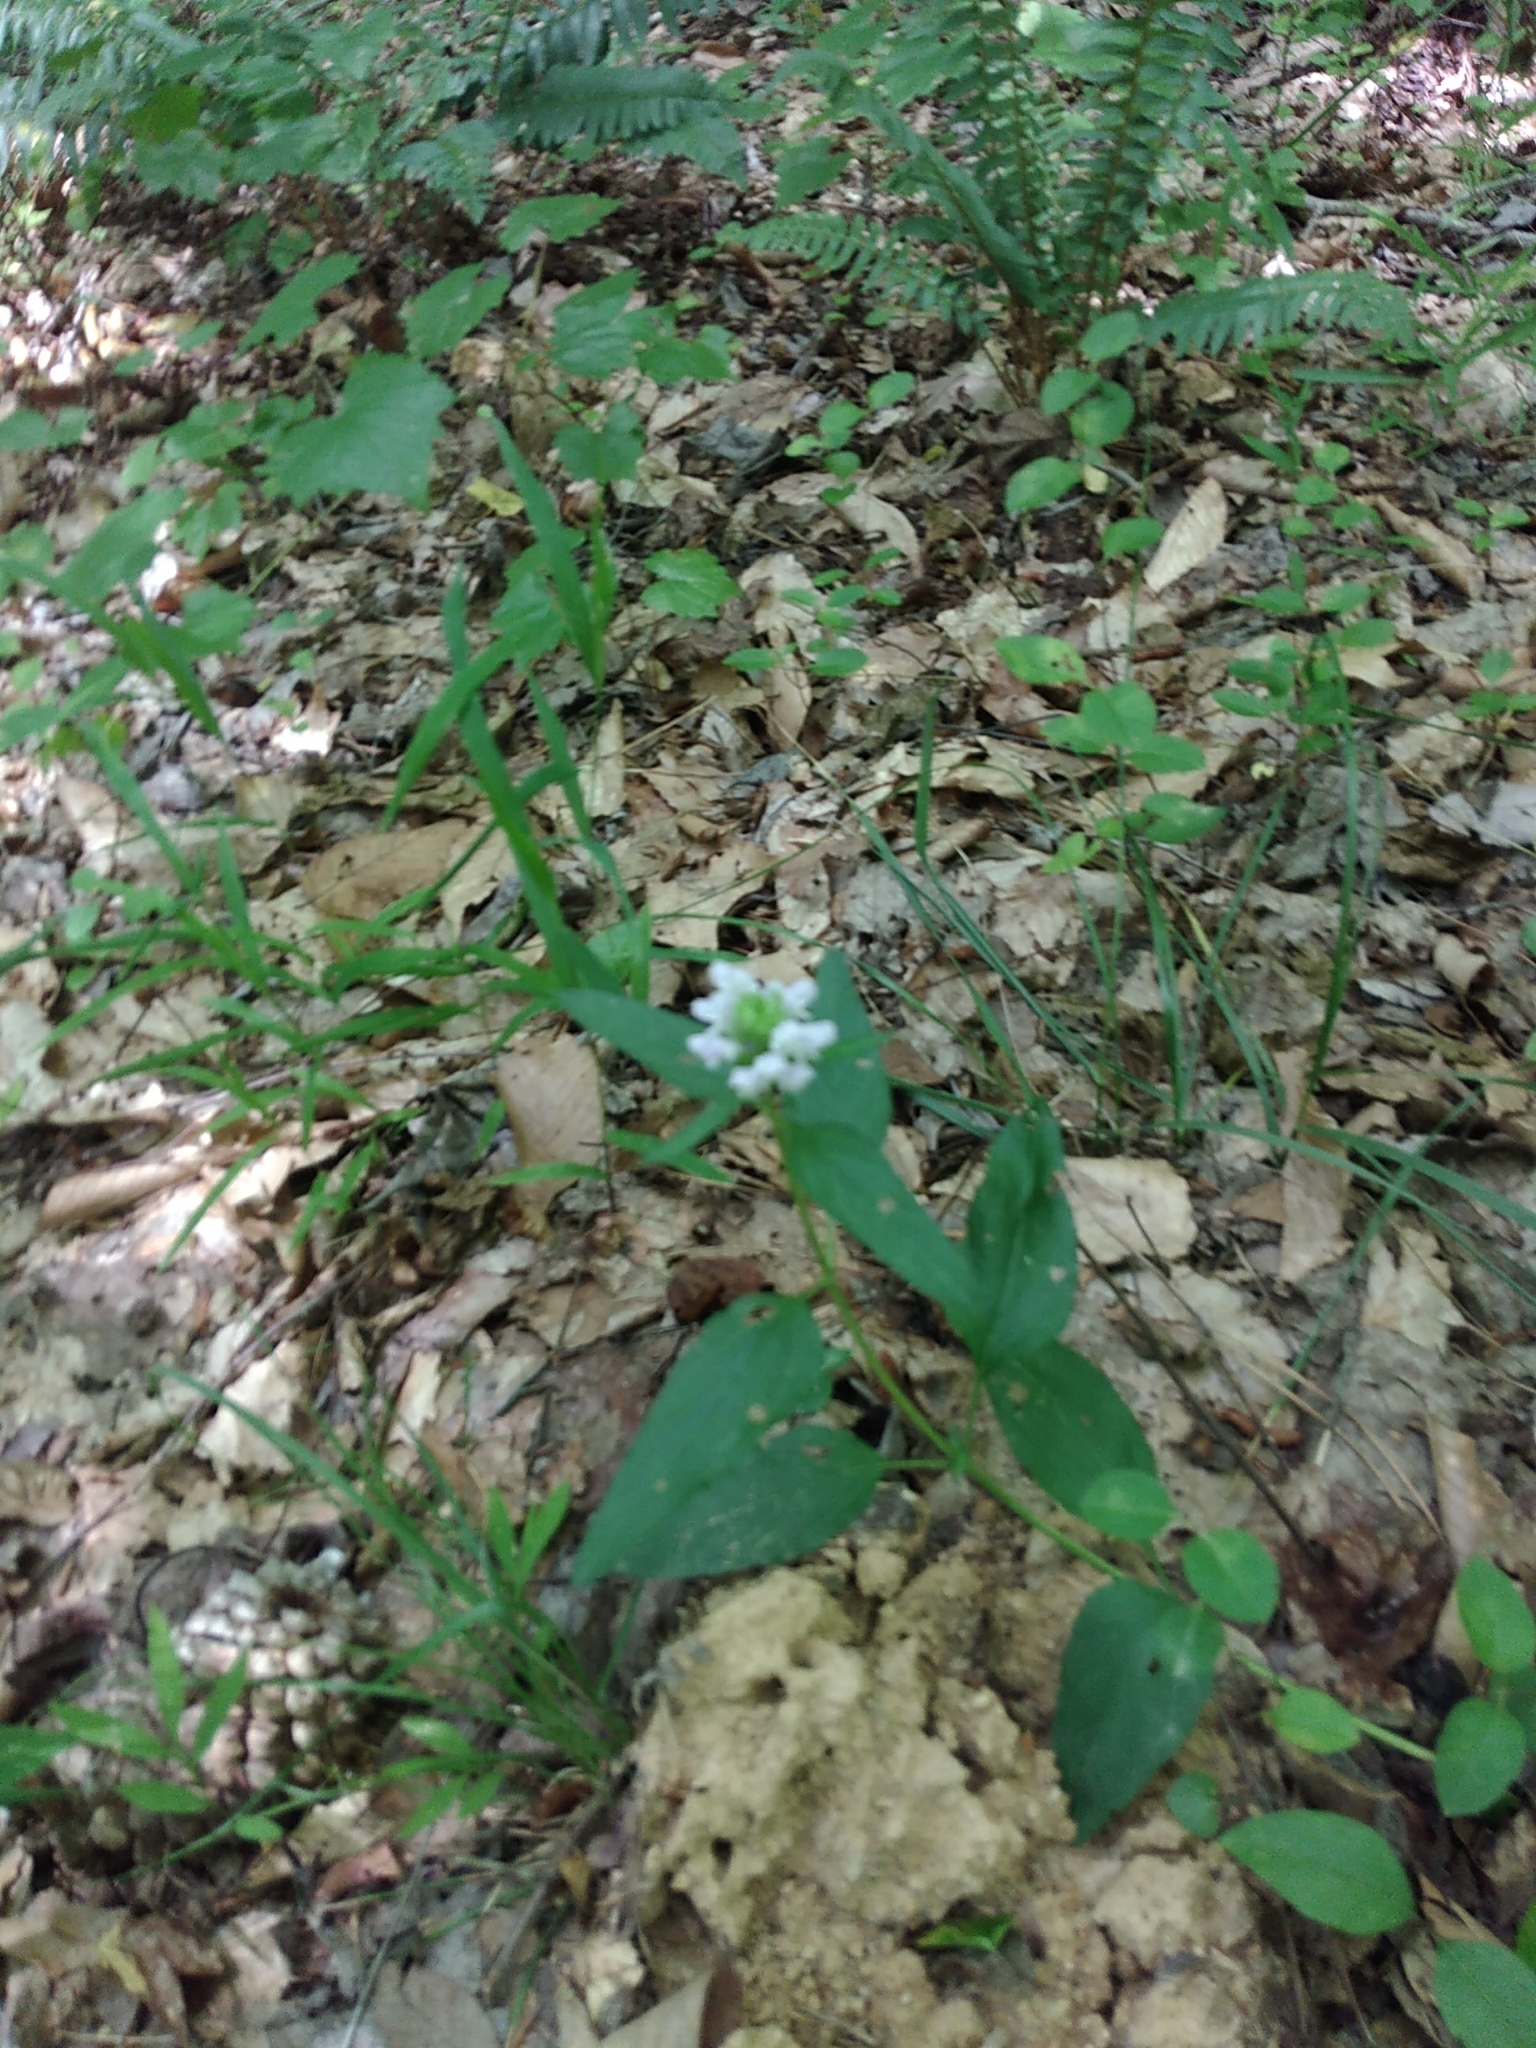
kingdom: Plantae
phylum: Tracheophyta
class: Magnoliopsida
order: Lamiales
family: Lamiaceae
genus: Prunella
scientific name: Prunella vulgaris
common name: Heal-all
